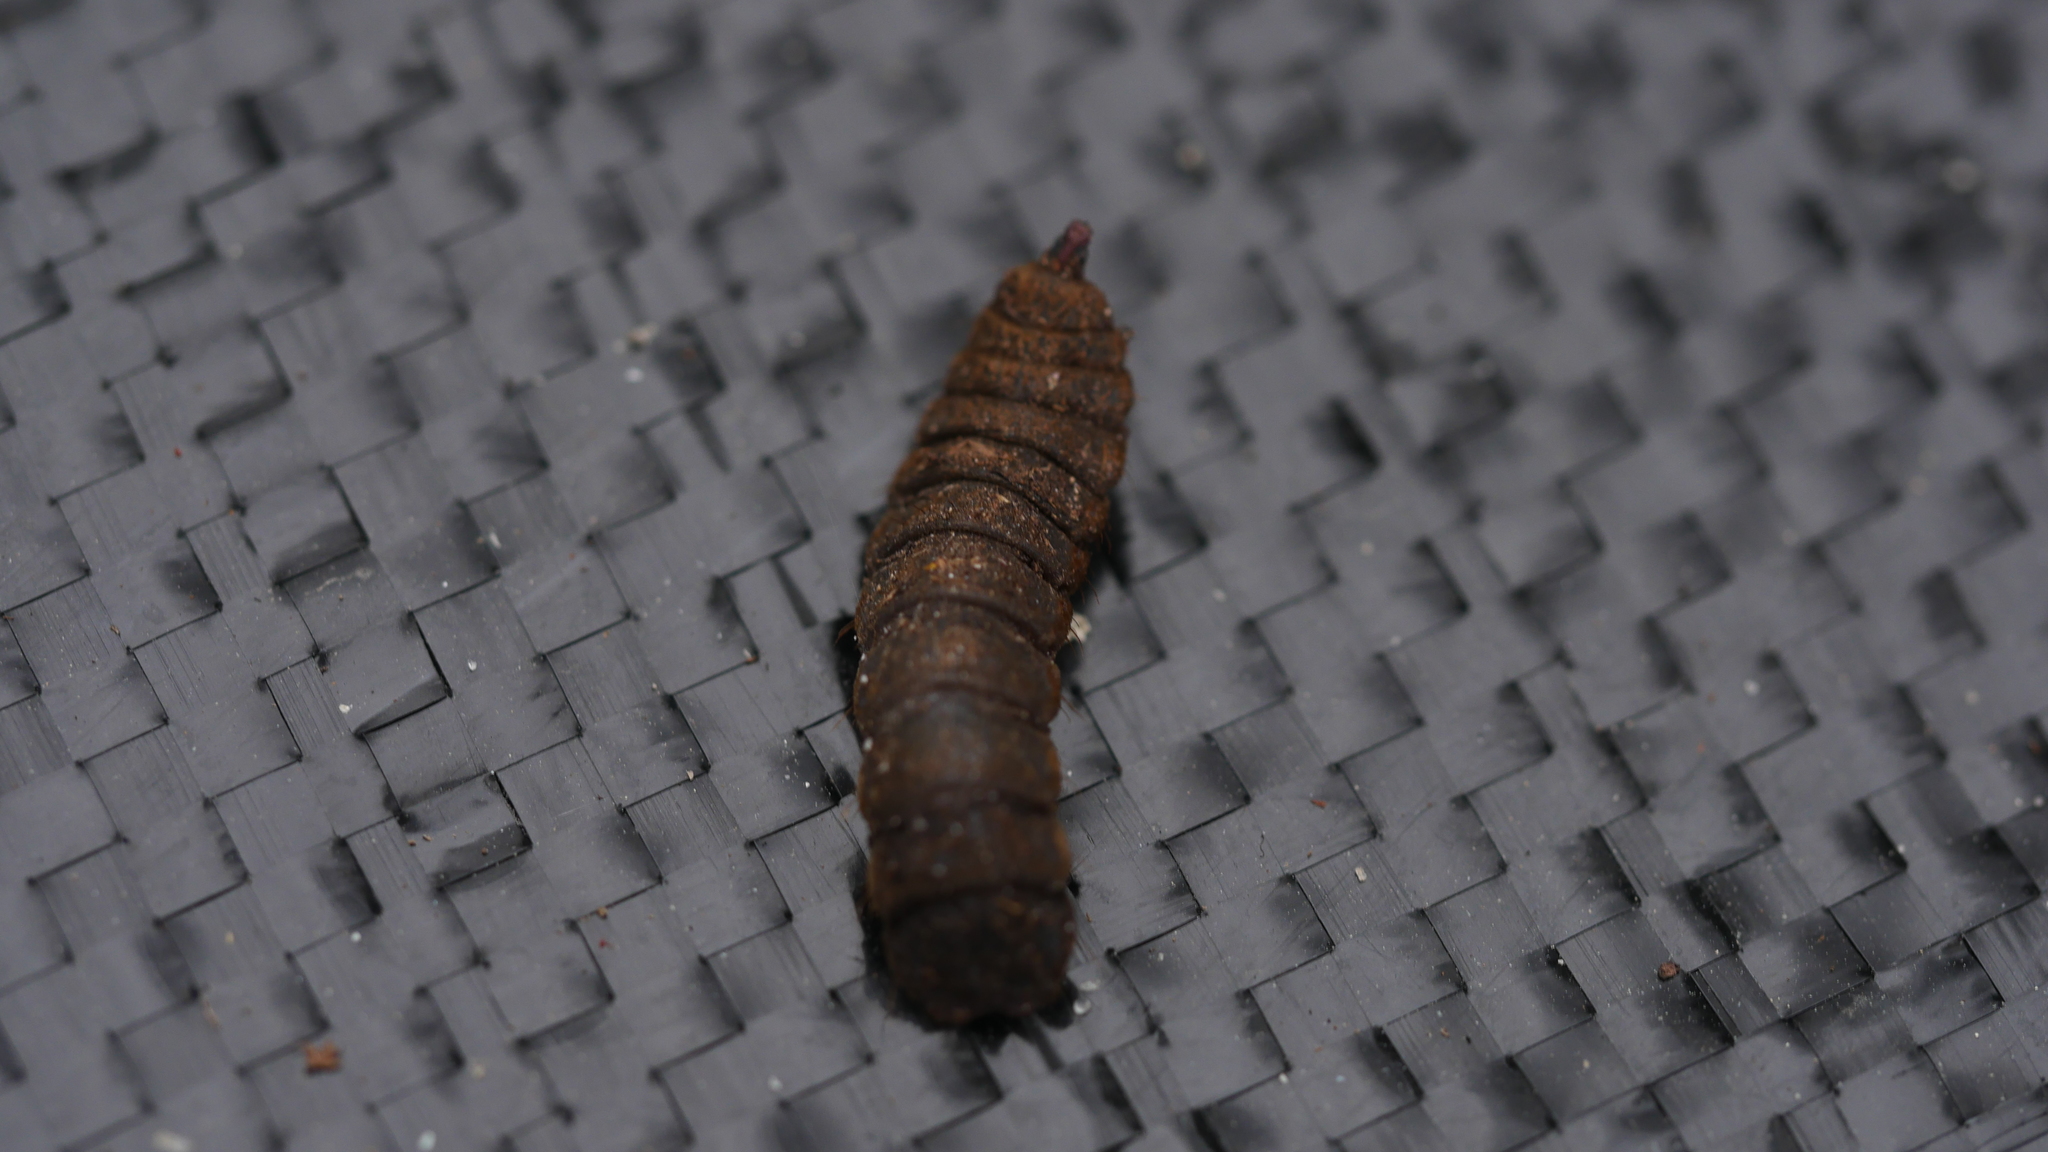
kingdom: Animalia
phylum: Arthropoda
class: Insecta
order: Diptera
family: Stratiomyidae
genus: Hermetia
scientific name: Hermetia illucens
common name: Black soldier fly
